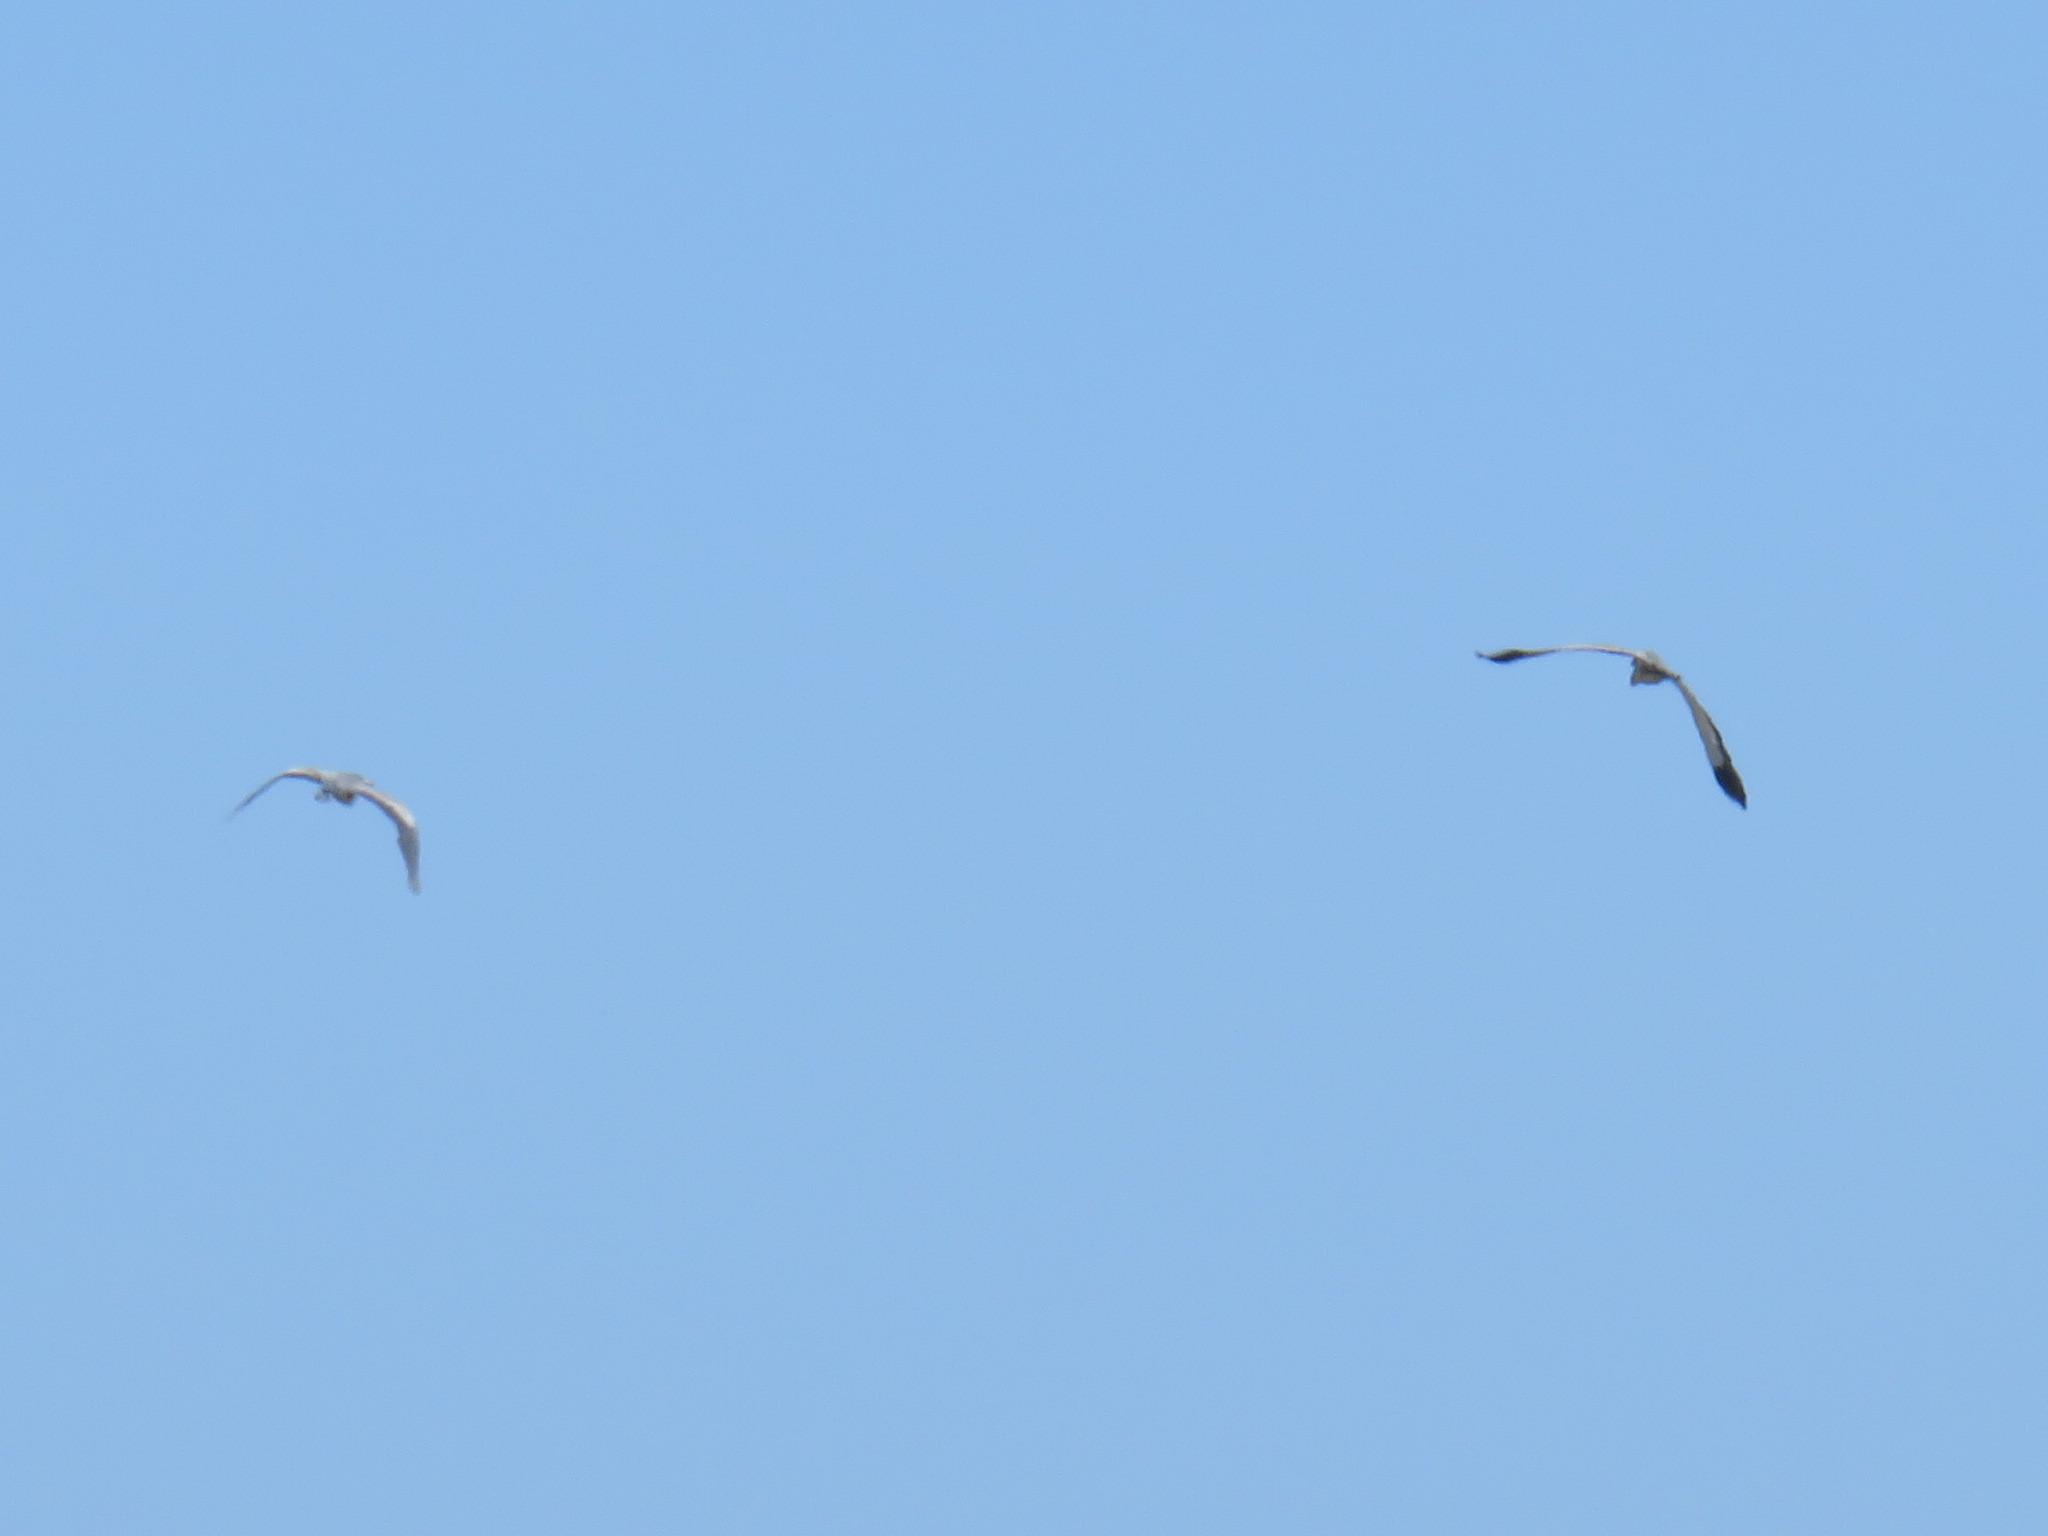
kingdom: Animalia
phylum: Chordata
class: Aves
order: Pelecaniformes
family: Ardeidae
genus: Ardea
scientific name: Ardea melanocephala
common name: Black-headed heron
